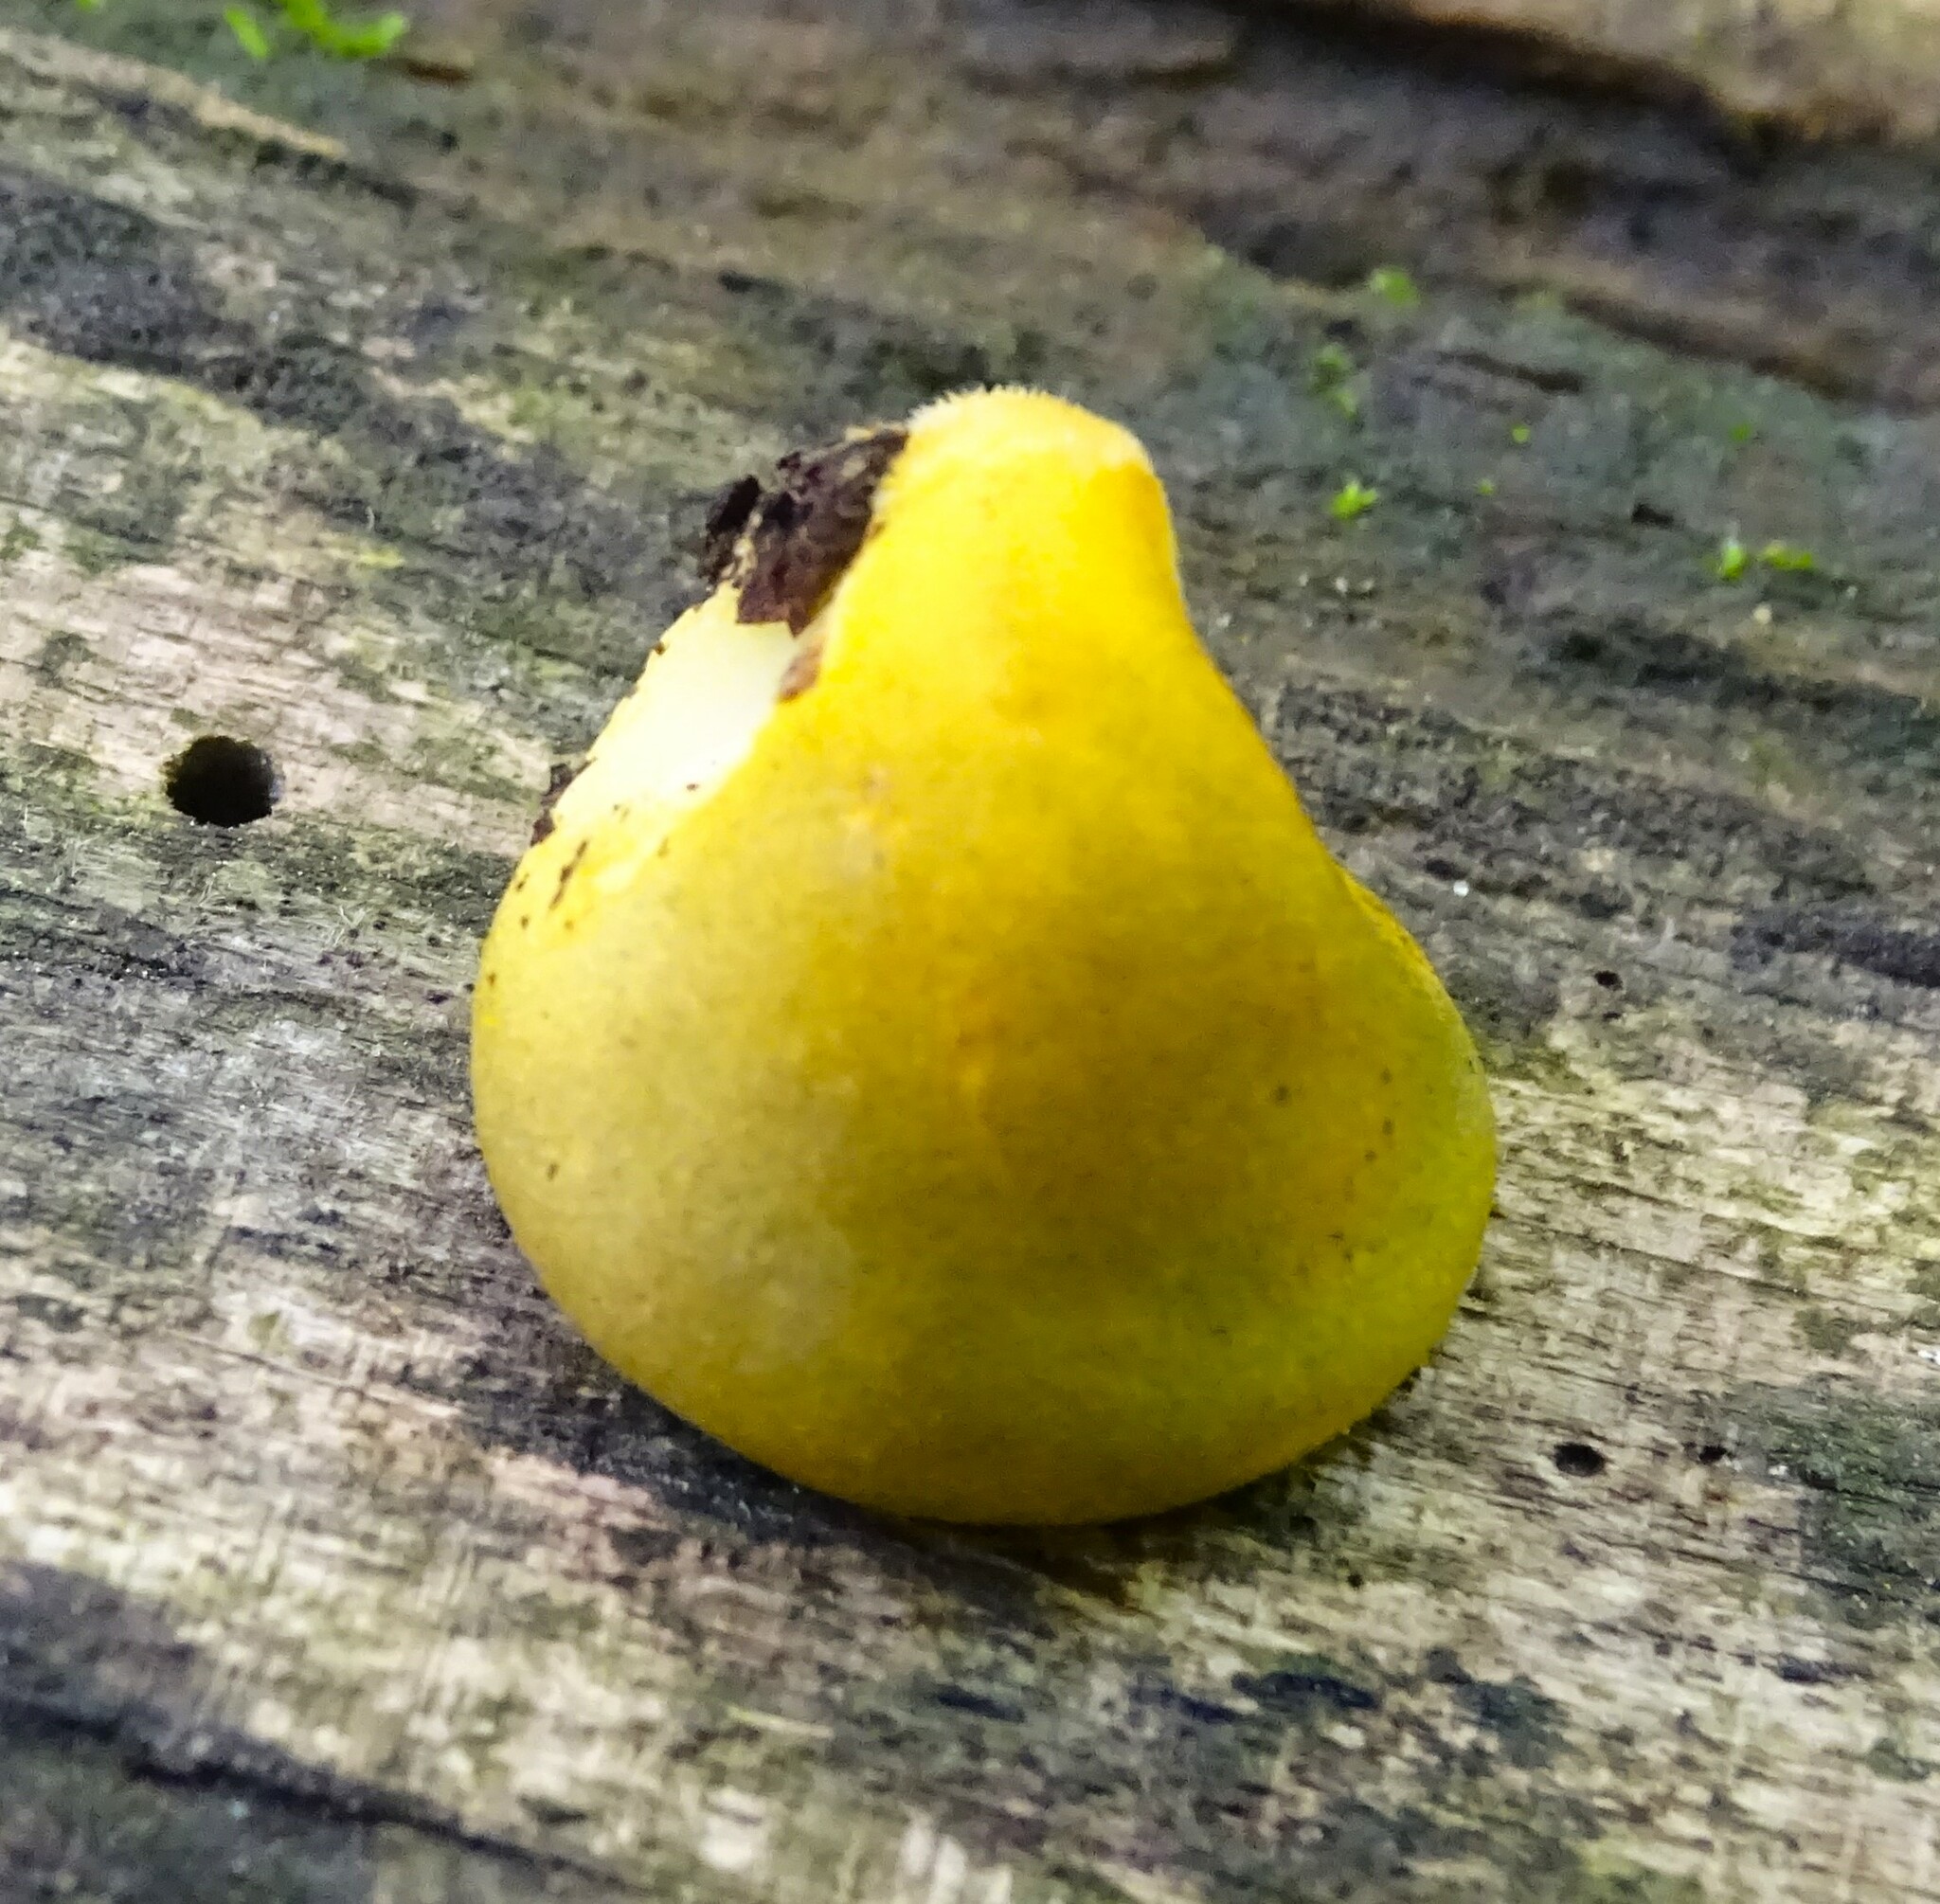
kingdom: Fungi
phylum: Basidiomycota
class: Agaricomycetes
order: Agaricales
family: Sarcomyxaceae
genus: Sarcomyxa
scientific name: Sarcomyxa serotina
